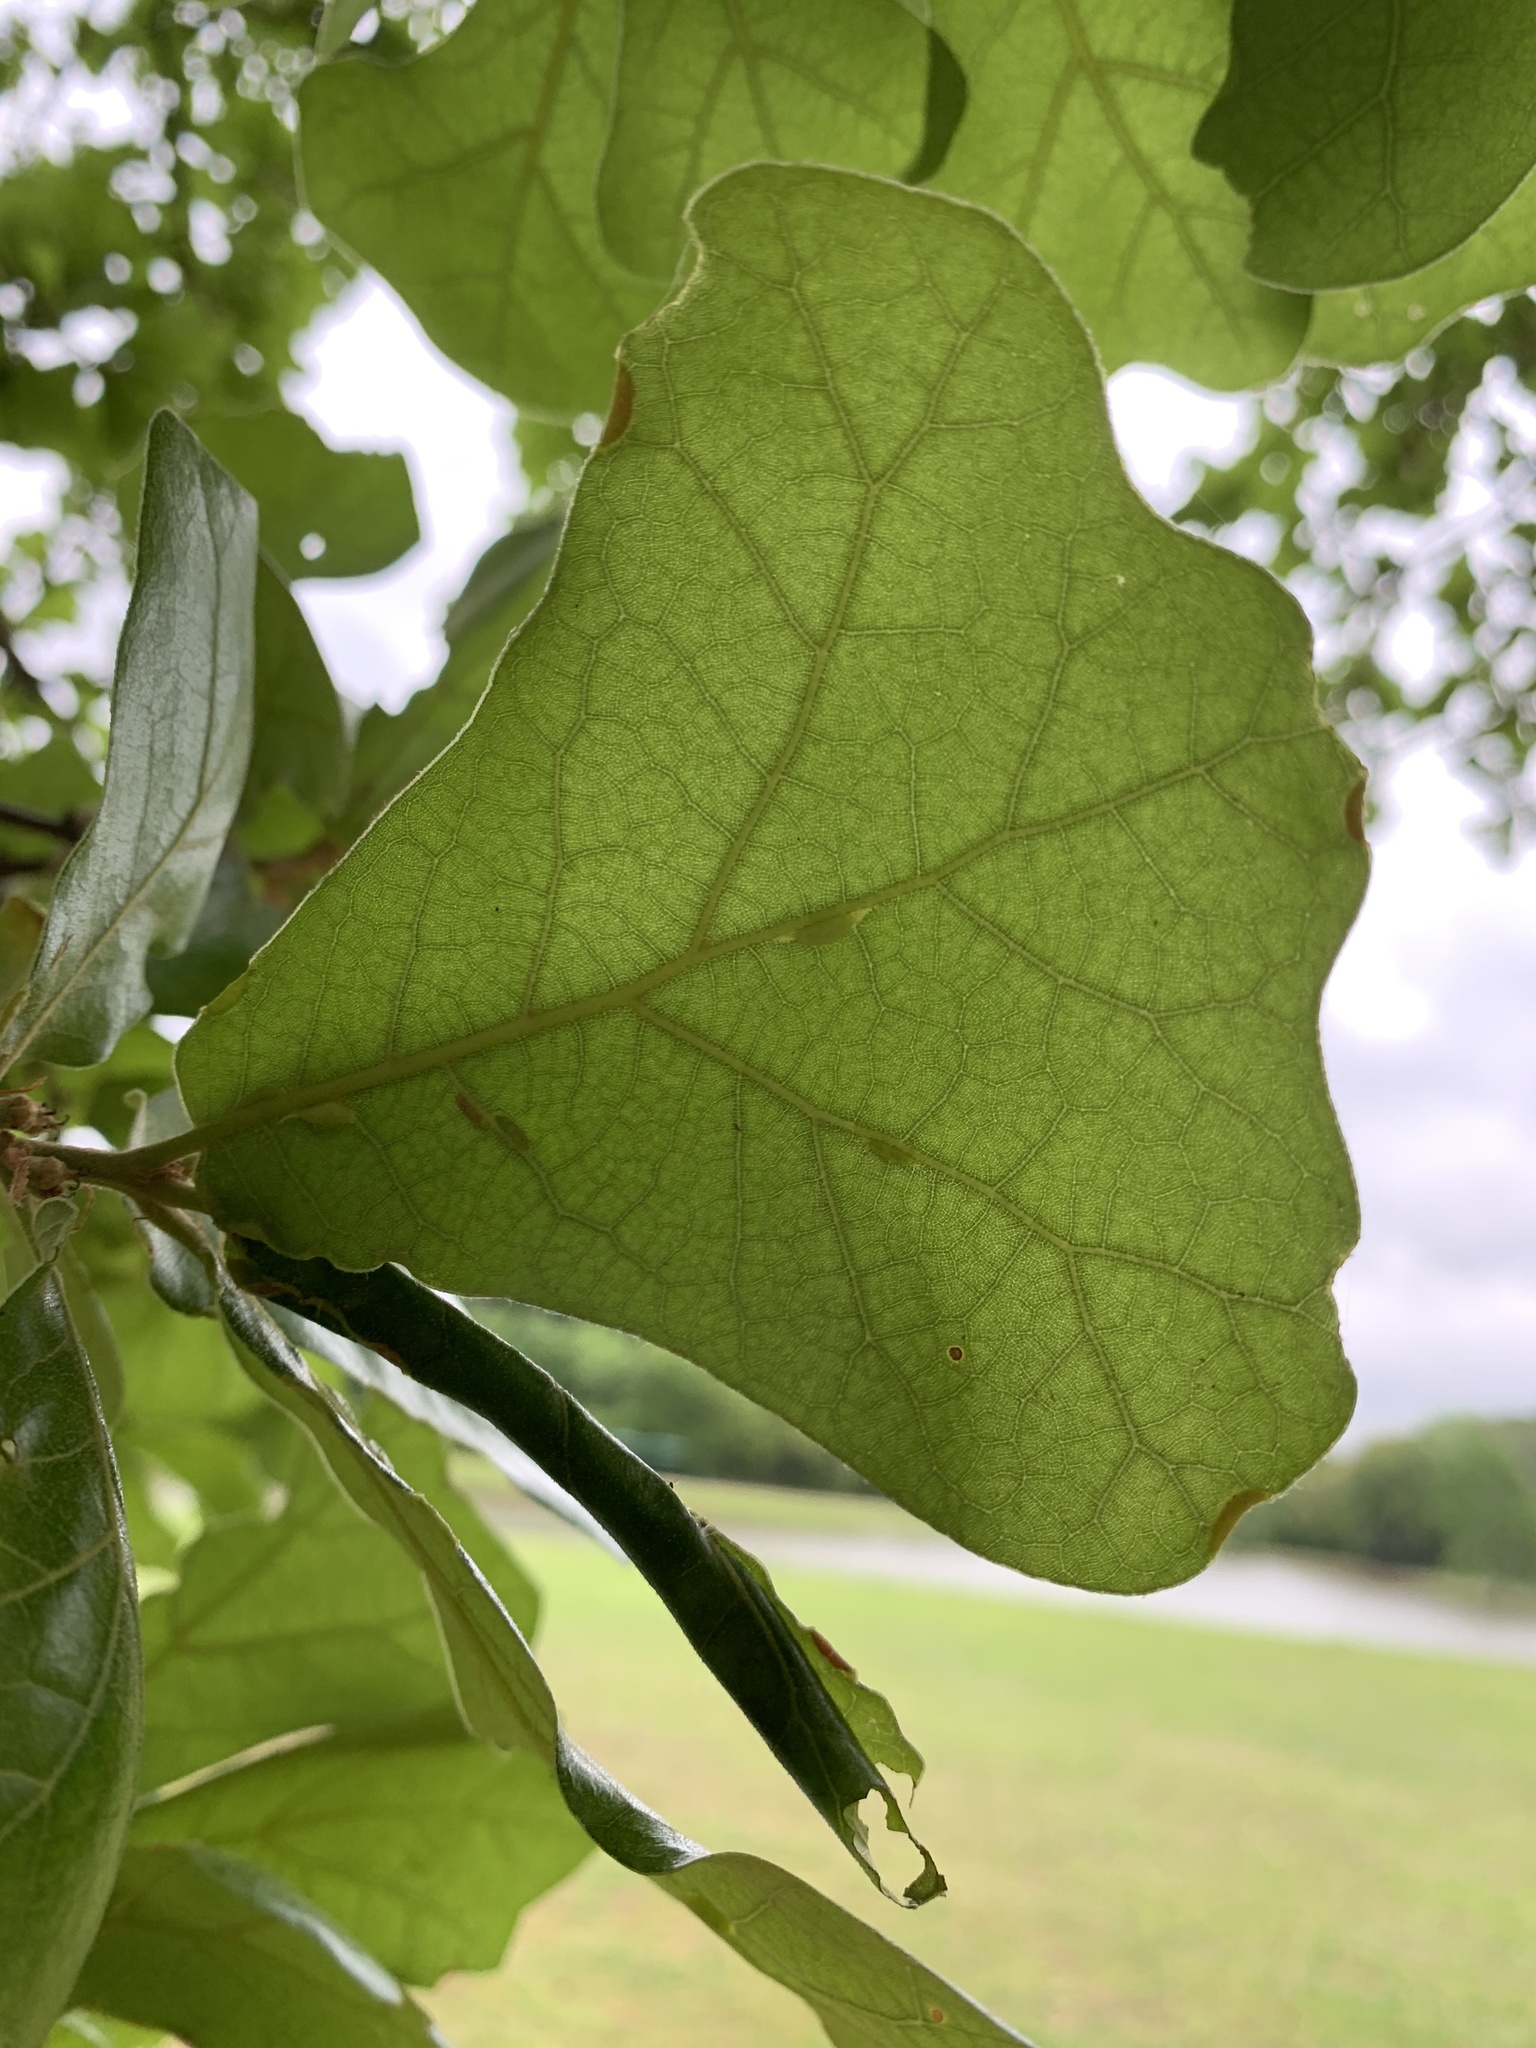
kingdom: Plantae
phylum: Tracheophyta
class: Magnoliopsida
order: Fagales
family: Fagaceae
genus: Quercus
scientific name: Quercus marilandica
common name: Blackjack oak
